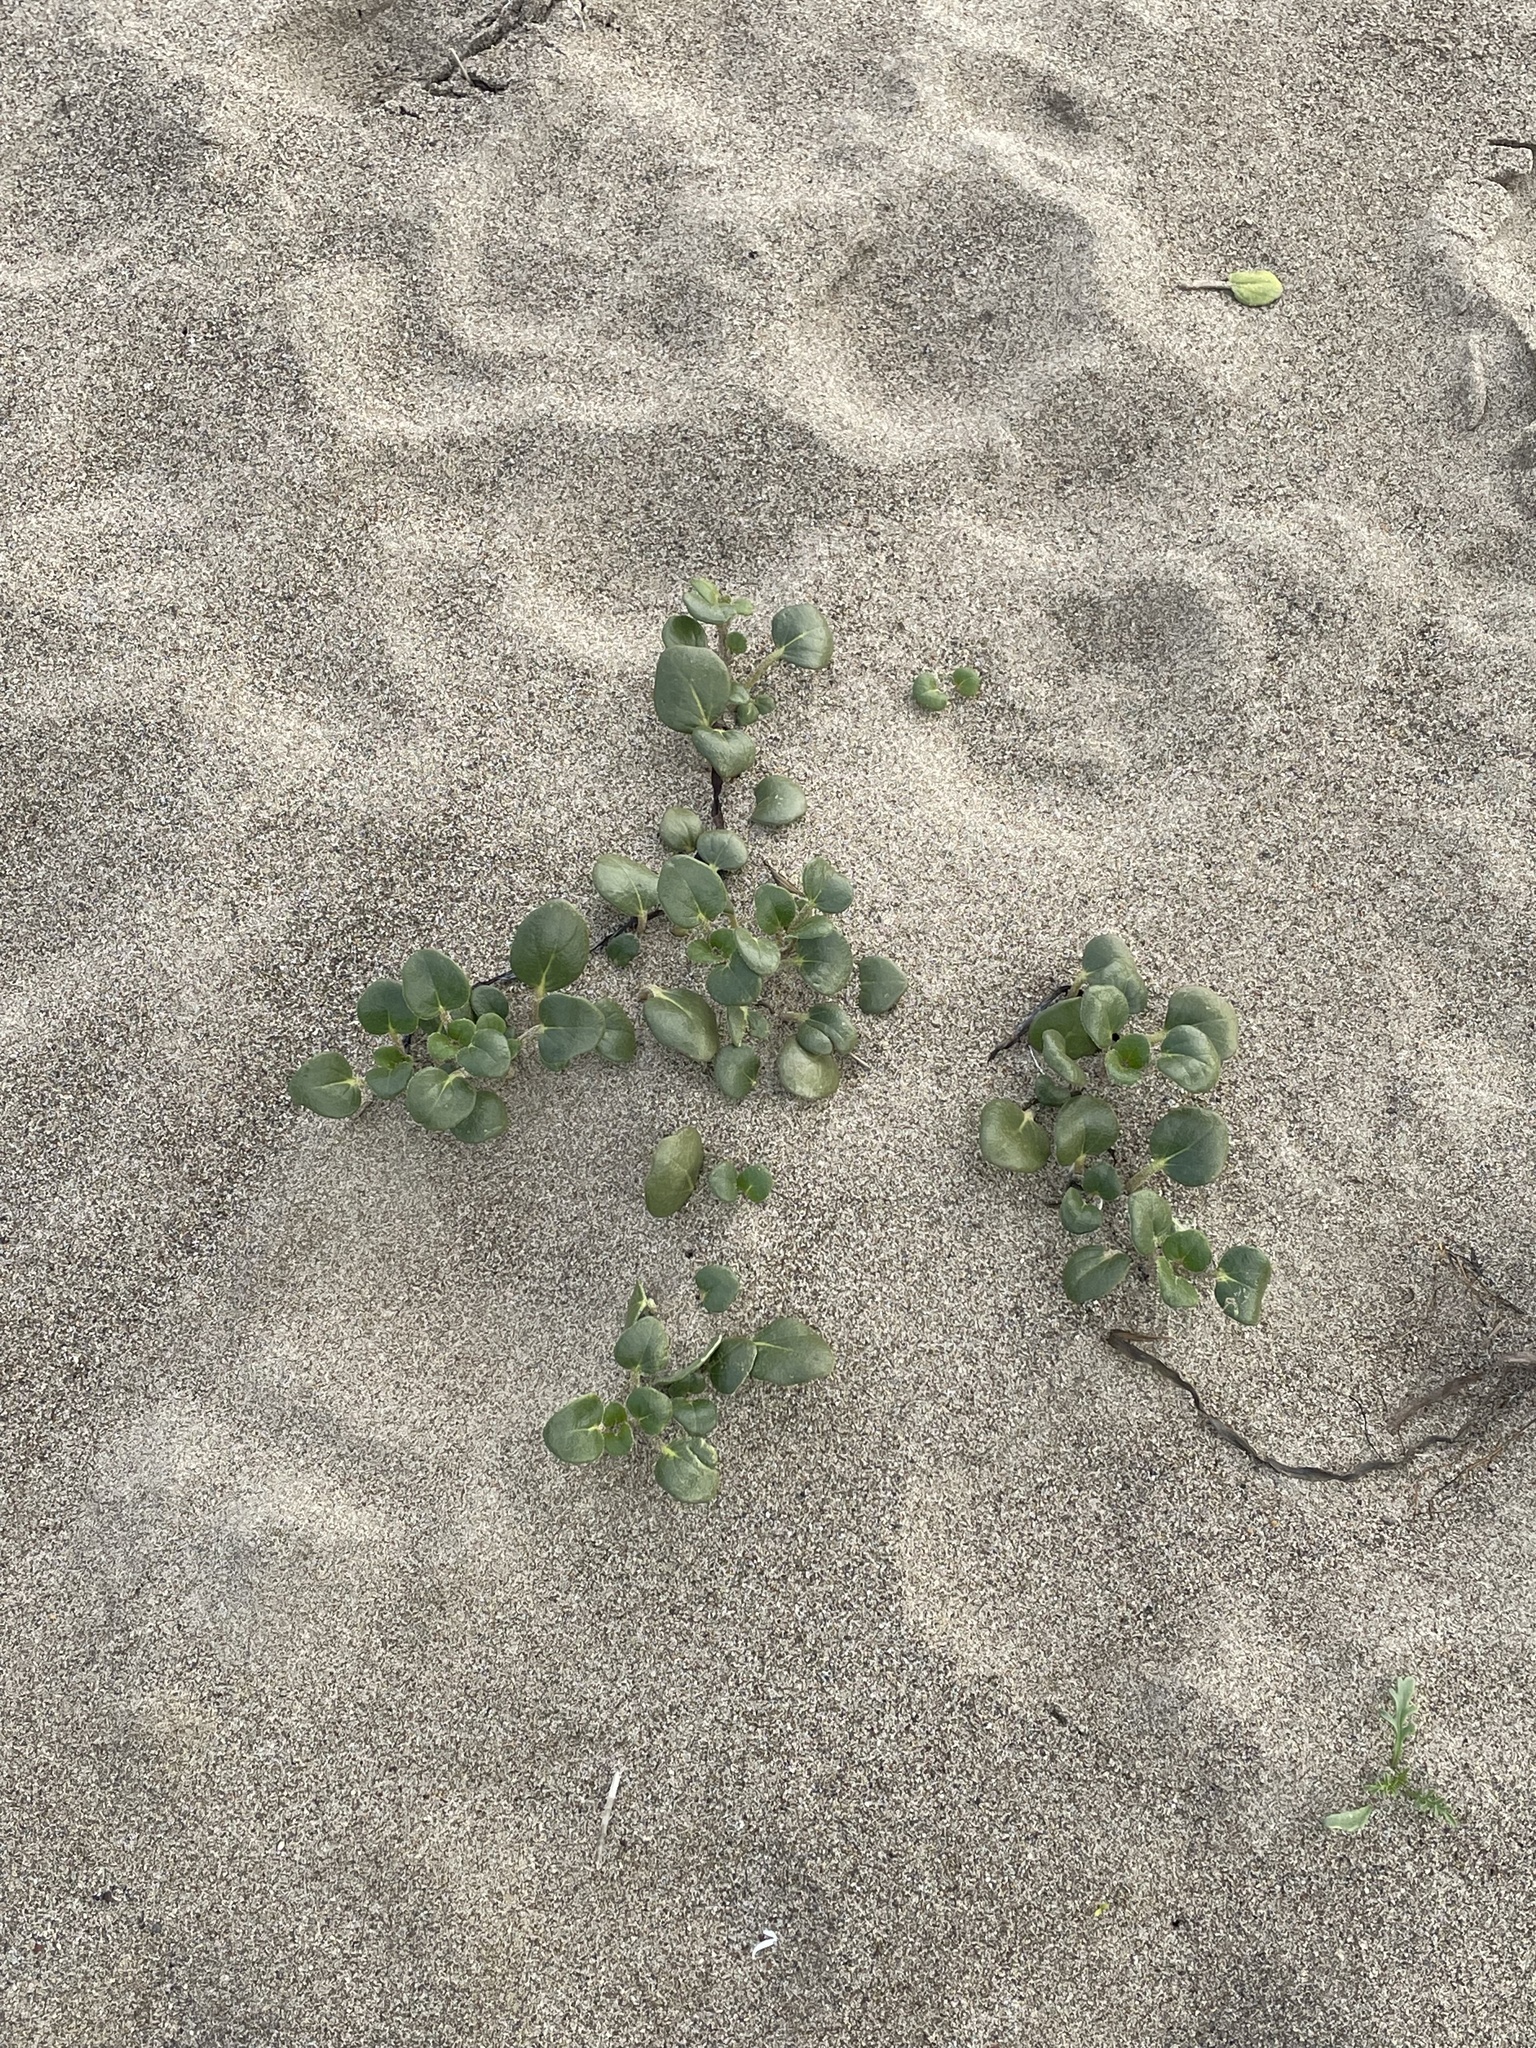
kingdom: Plantae
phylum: Tracheophyta
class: Magnoliopsida
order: Caryophyllales
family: Nyctaginaceae
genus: Abronia
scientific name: Abronia latifolia
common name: Yellow sand-verbena
